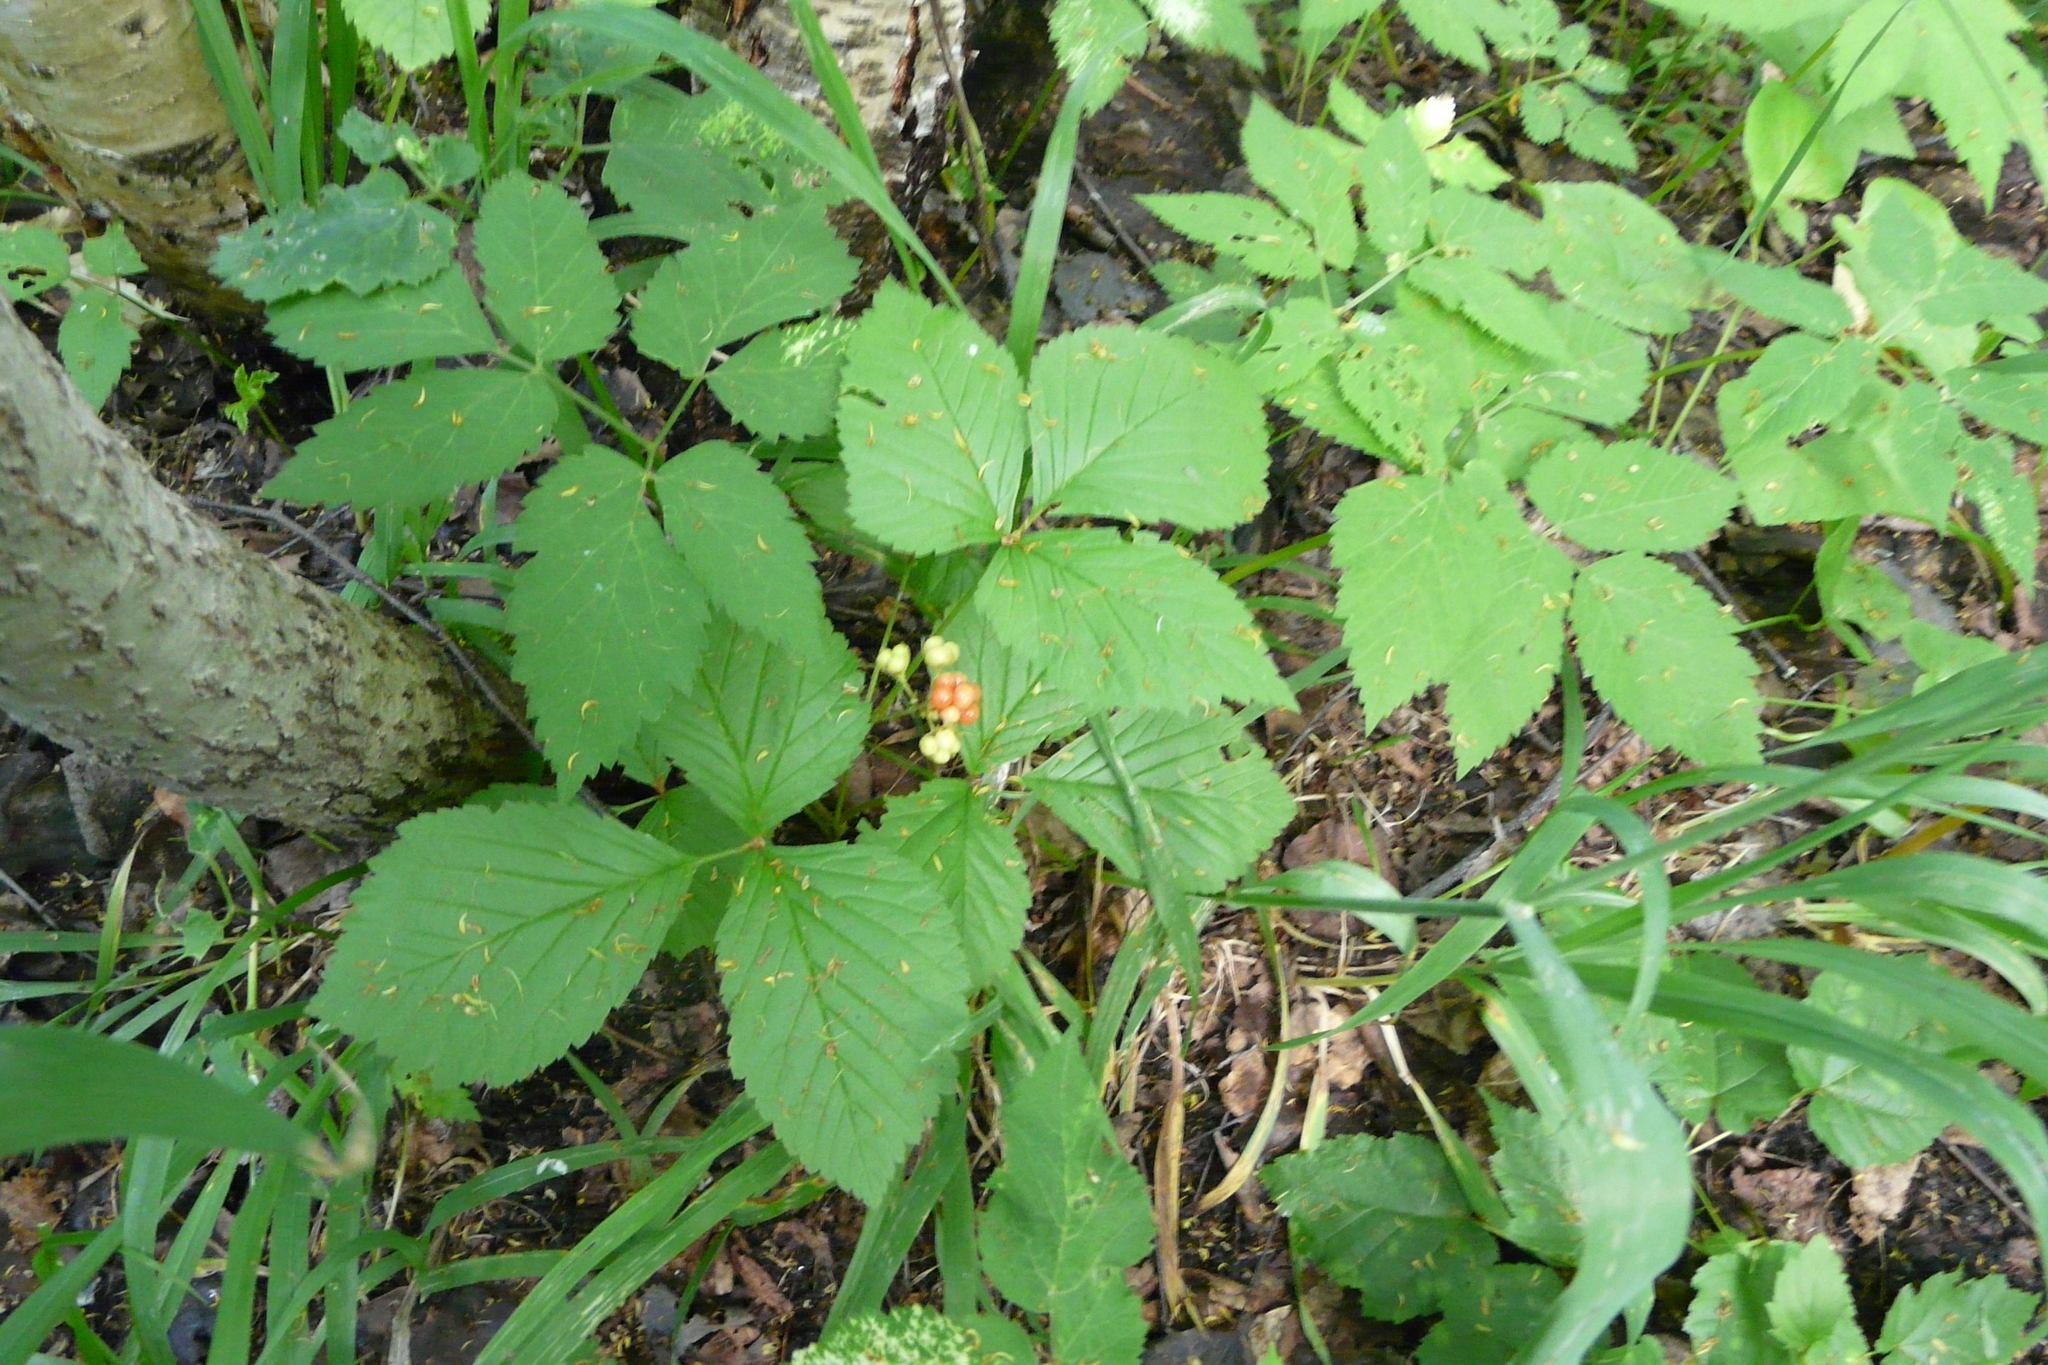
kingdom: Plantae
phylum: Tracheophyta
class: Magnoliopsida
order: Rosales
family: Rosaceae
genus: Rubus
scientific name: Rubus saxatilis
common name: Stone bramble
